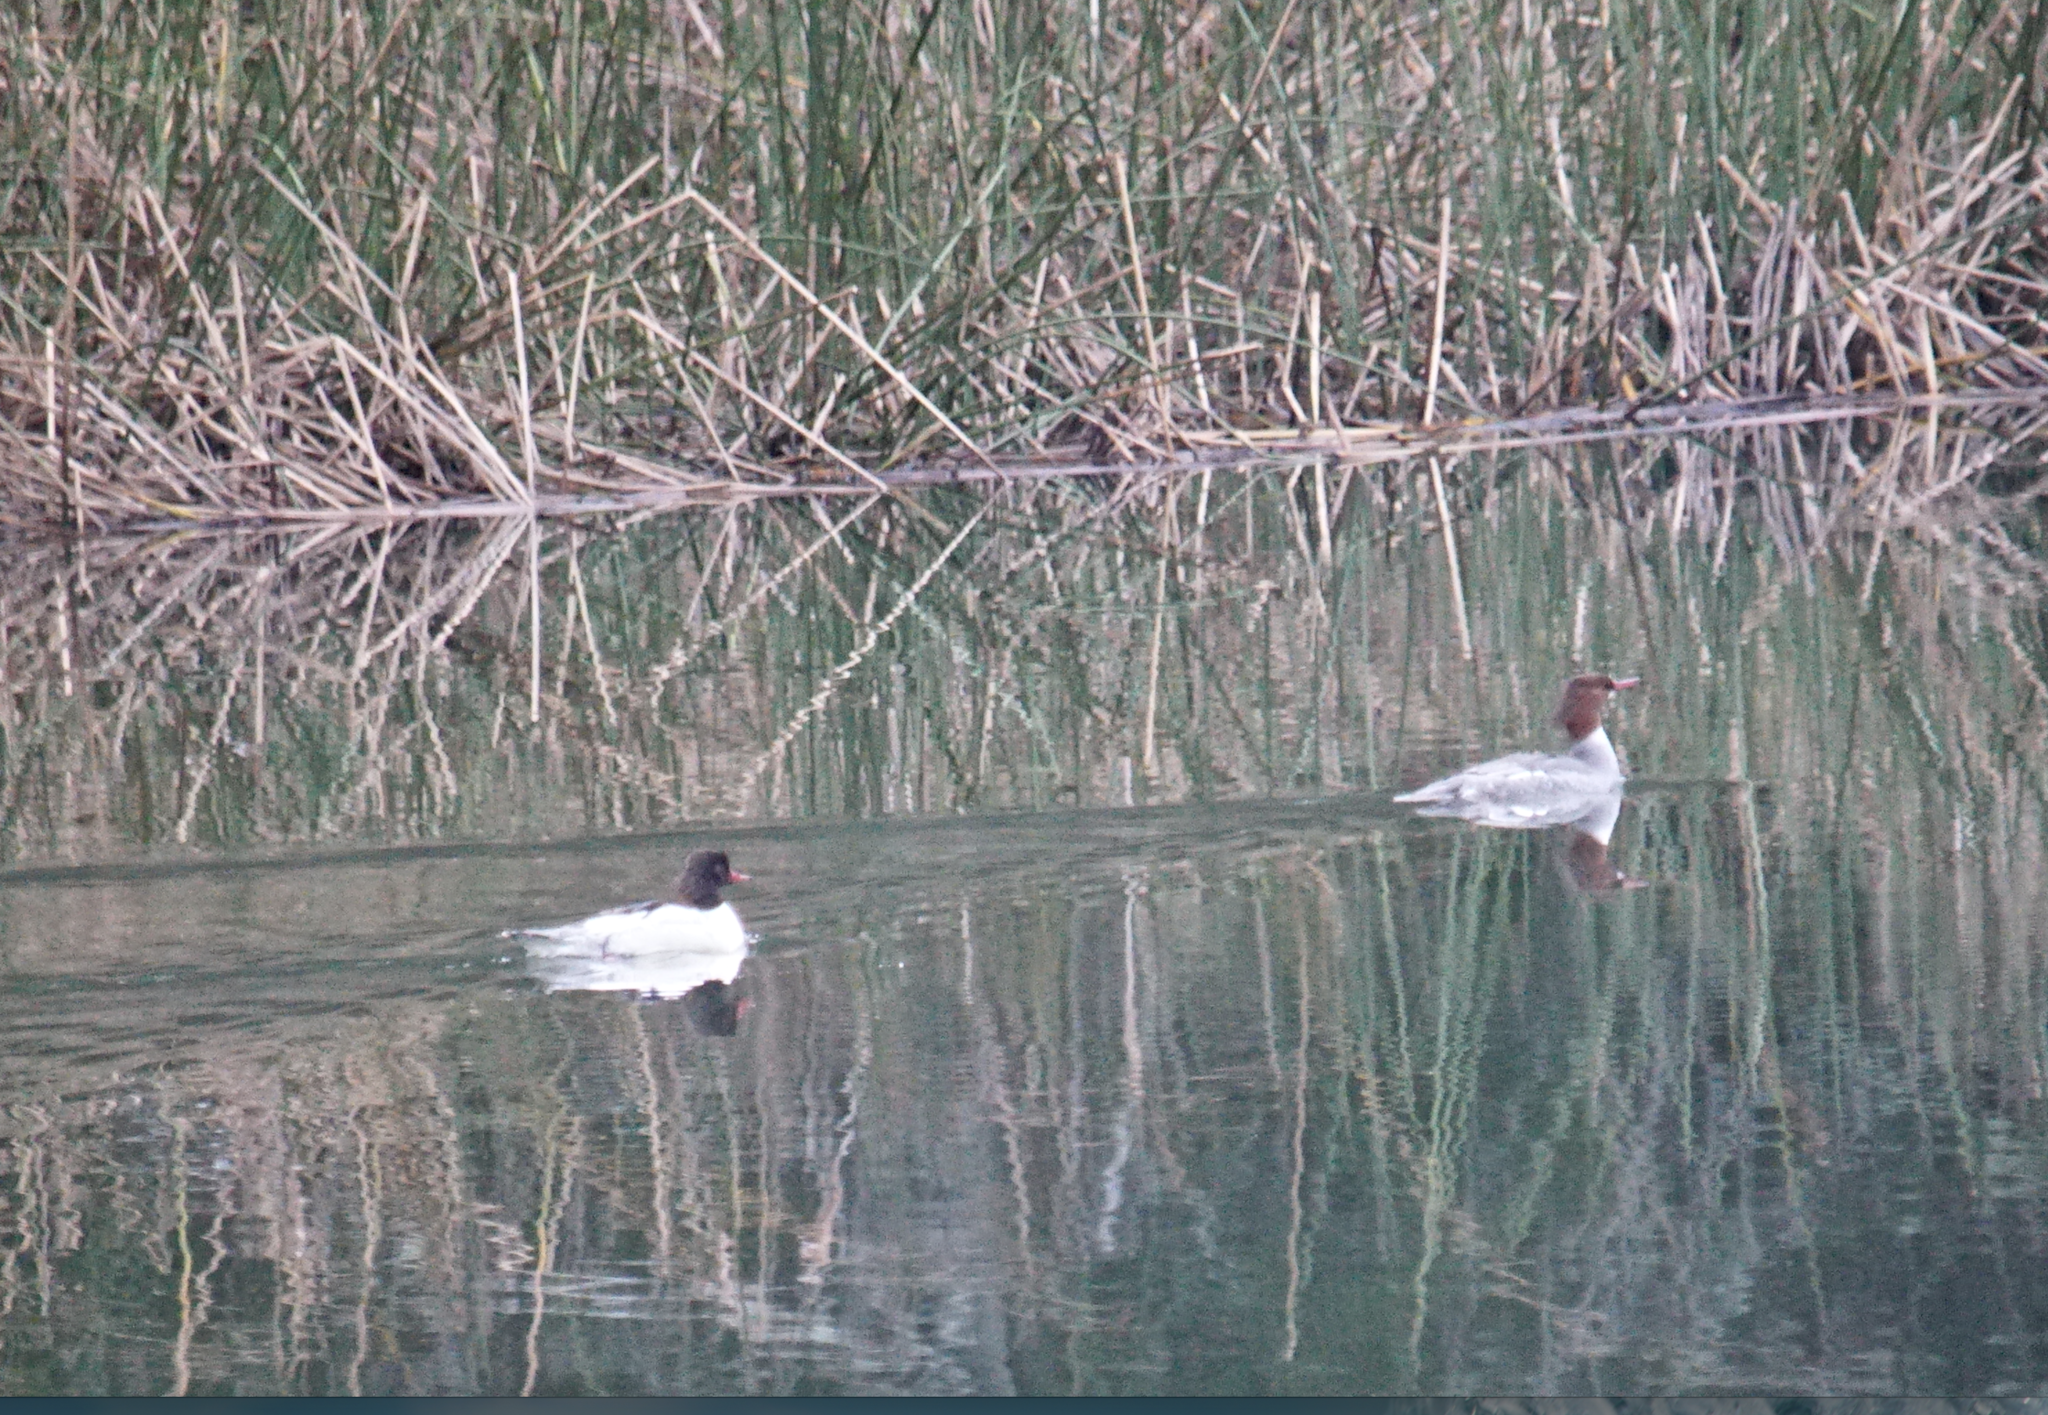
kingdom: Animalia
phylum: Chordata
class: Aves
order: Anseriformes
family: Anatidae
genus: Mergus
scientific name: Mergus merganser
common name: Common merganser
